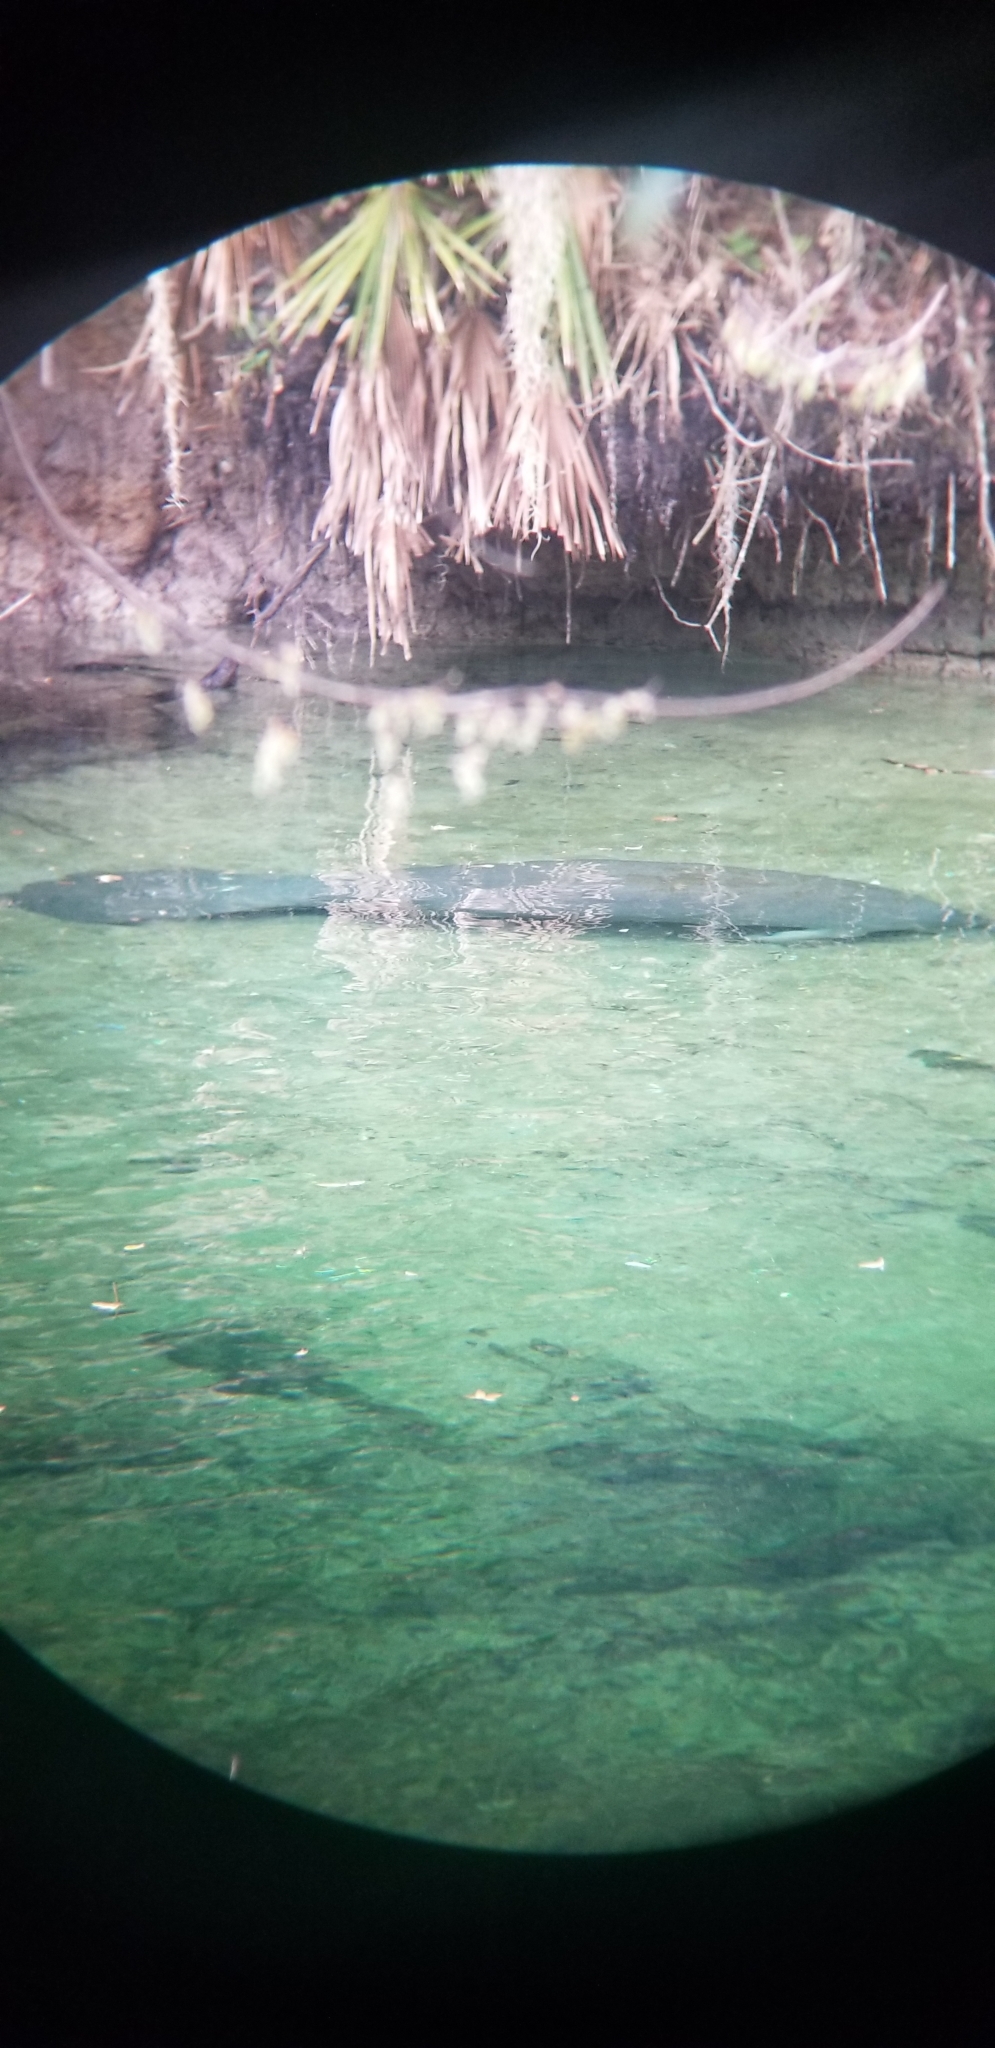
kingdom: Animalia
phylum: Chordata
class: Mammalia
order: Sirenia
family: Trichechidae
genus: Trichechus
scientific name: Trichechus manatus
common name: West indian manatee
